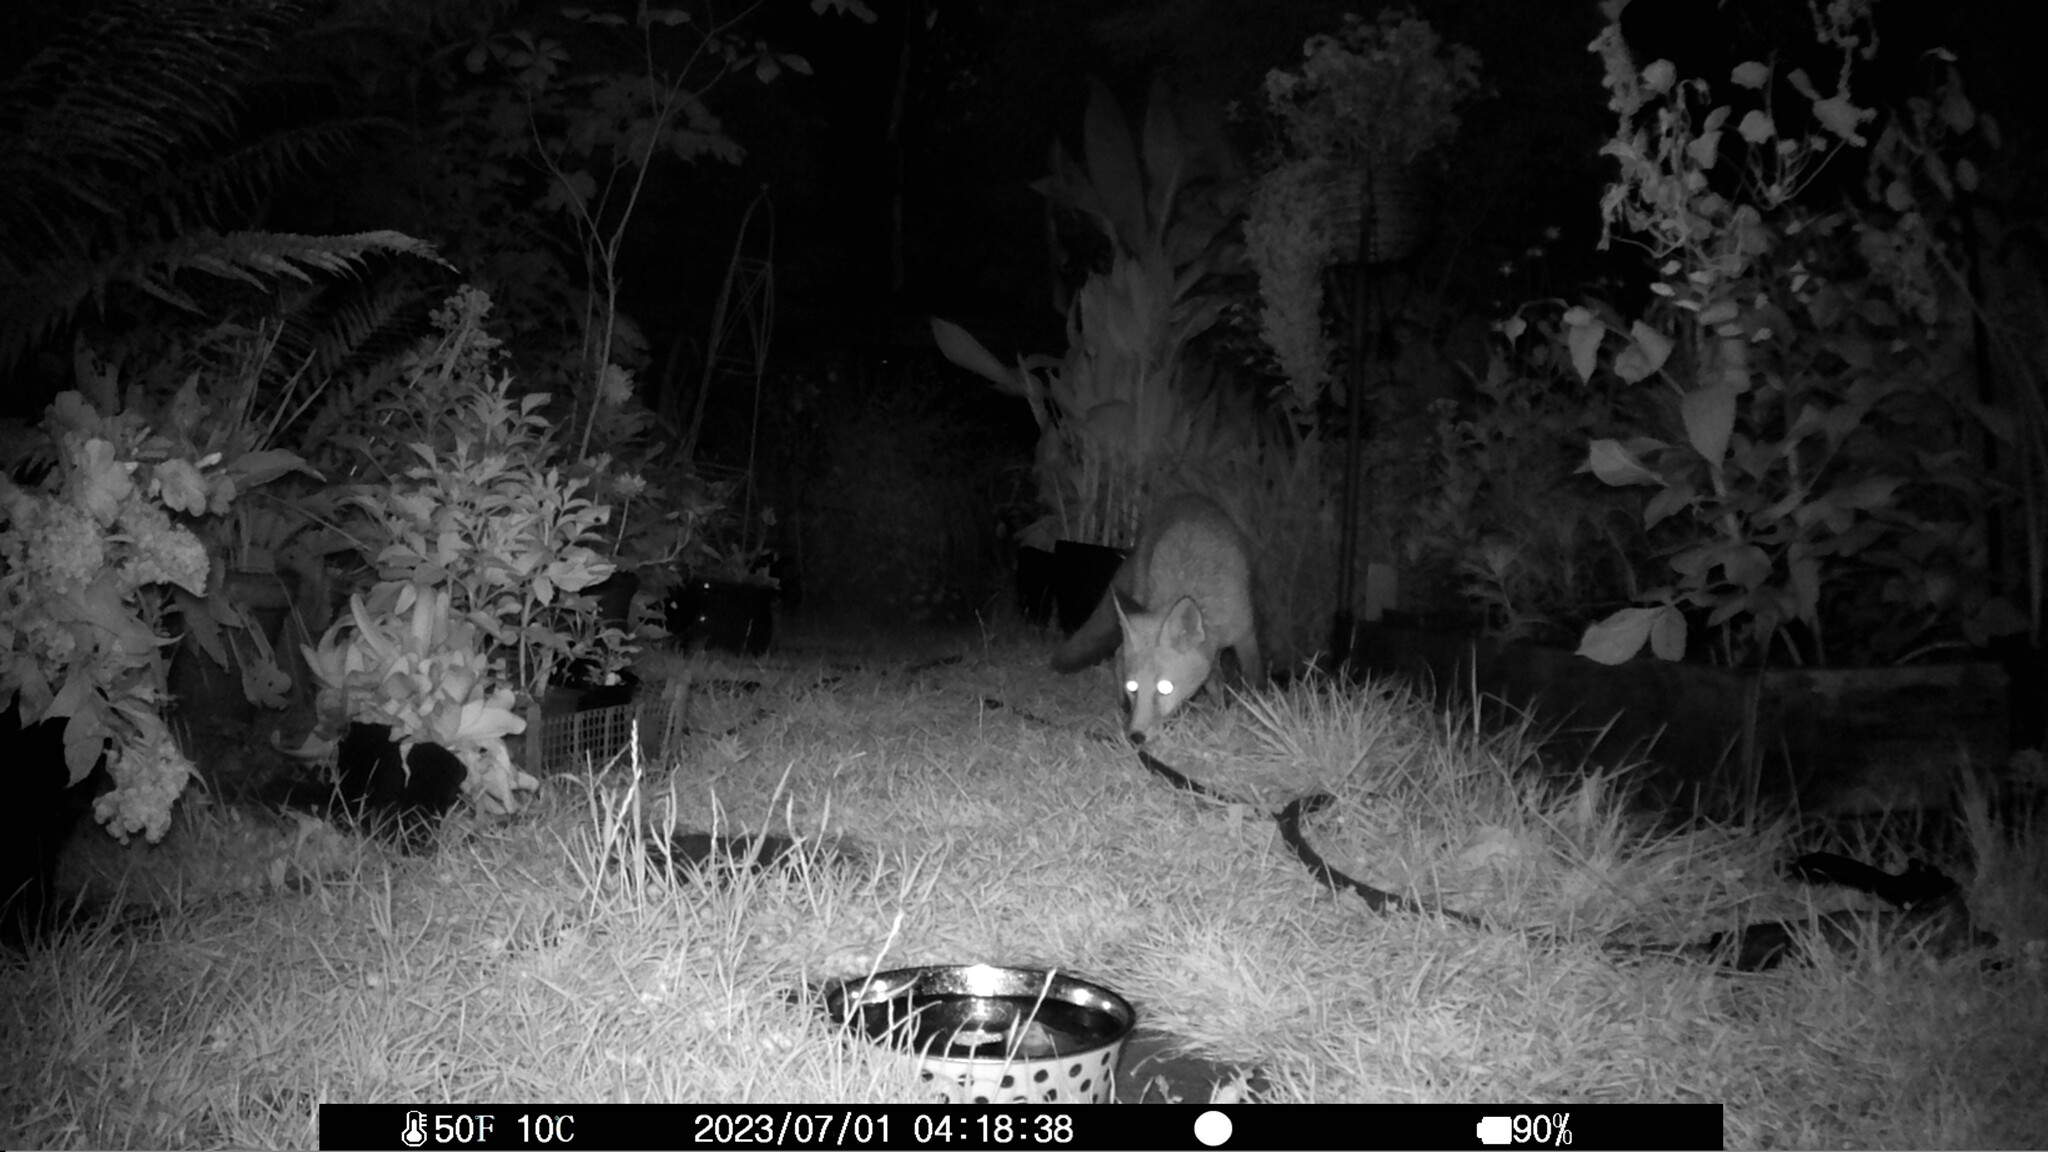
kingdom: Animalia
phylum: Chordata
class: Mammalia
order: Carnivora
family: Canidae
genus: Vulpes
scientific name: Vulpes vulpes
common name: Red fox
